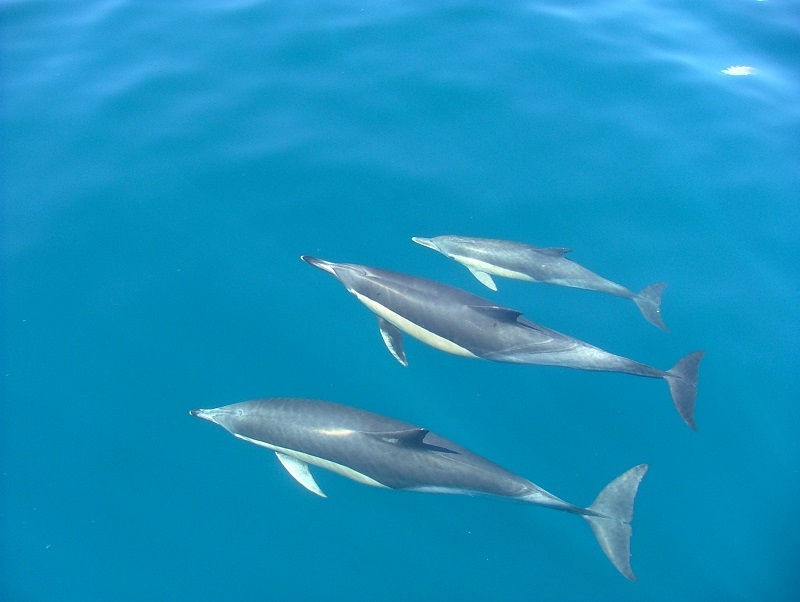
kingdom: Animalia
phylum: Chordata
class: Mammalia
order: Cetacea
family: Delphinidae
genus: Delphinus
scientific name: Delphinus delphis
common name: Common dolphin
